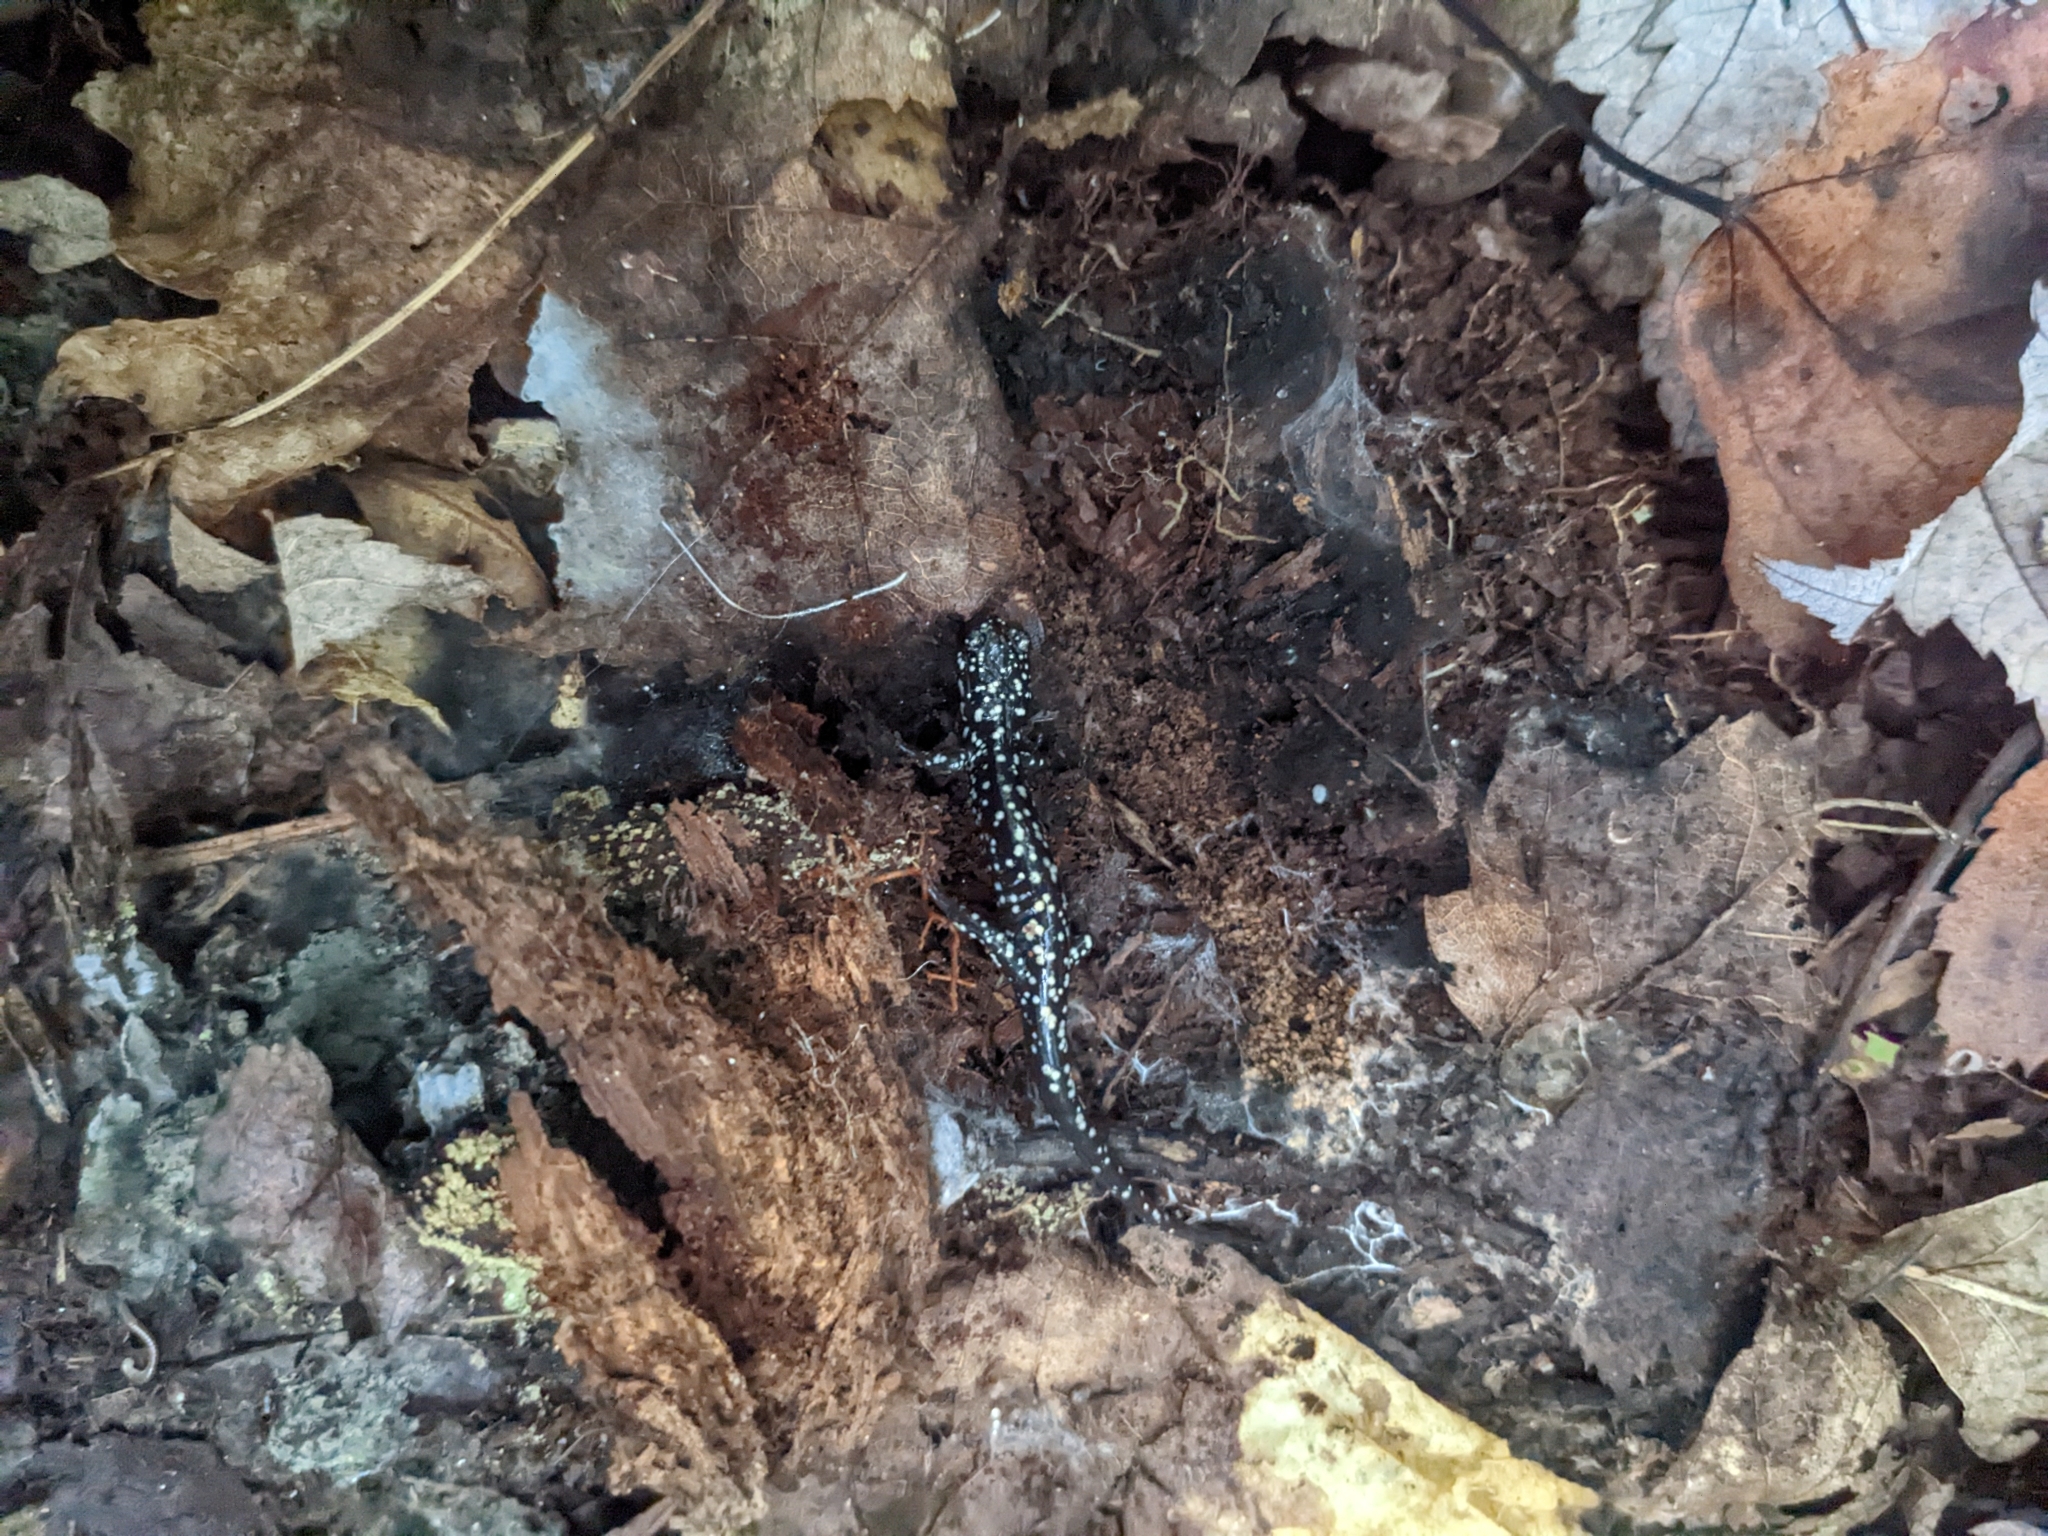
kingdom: Animalia
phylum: Chordata
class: Amphibia
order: Caudata
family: Plethodontidae
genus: Plethodon
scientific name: Plethodon glutinosus
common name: Northern slimy salamander
